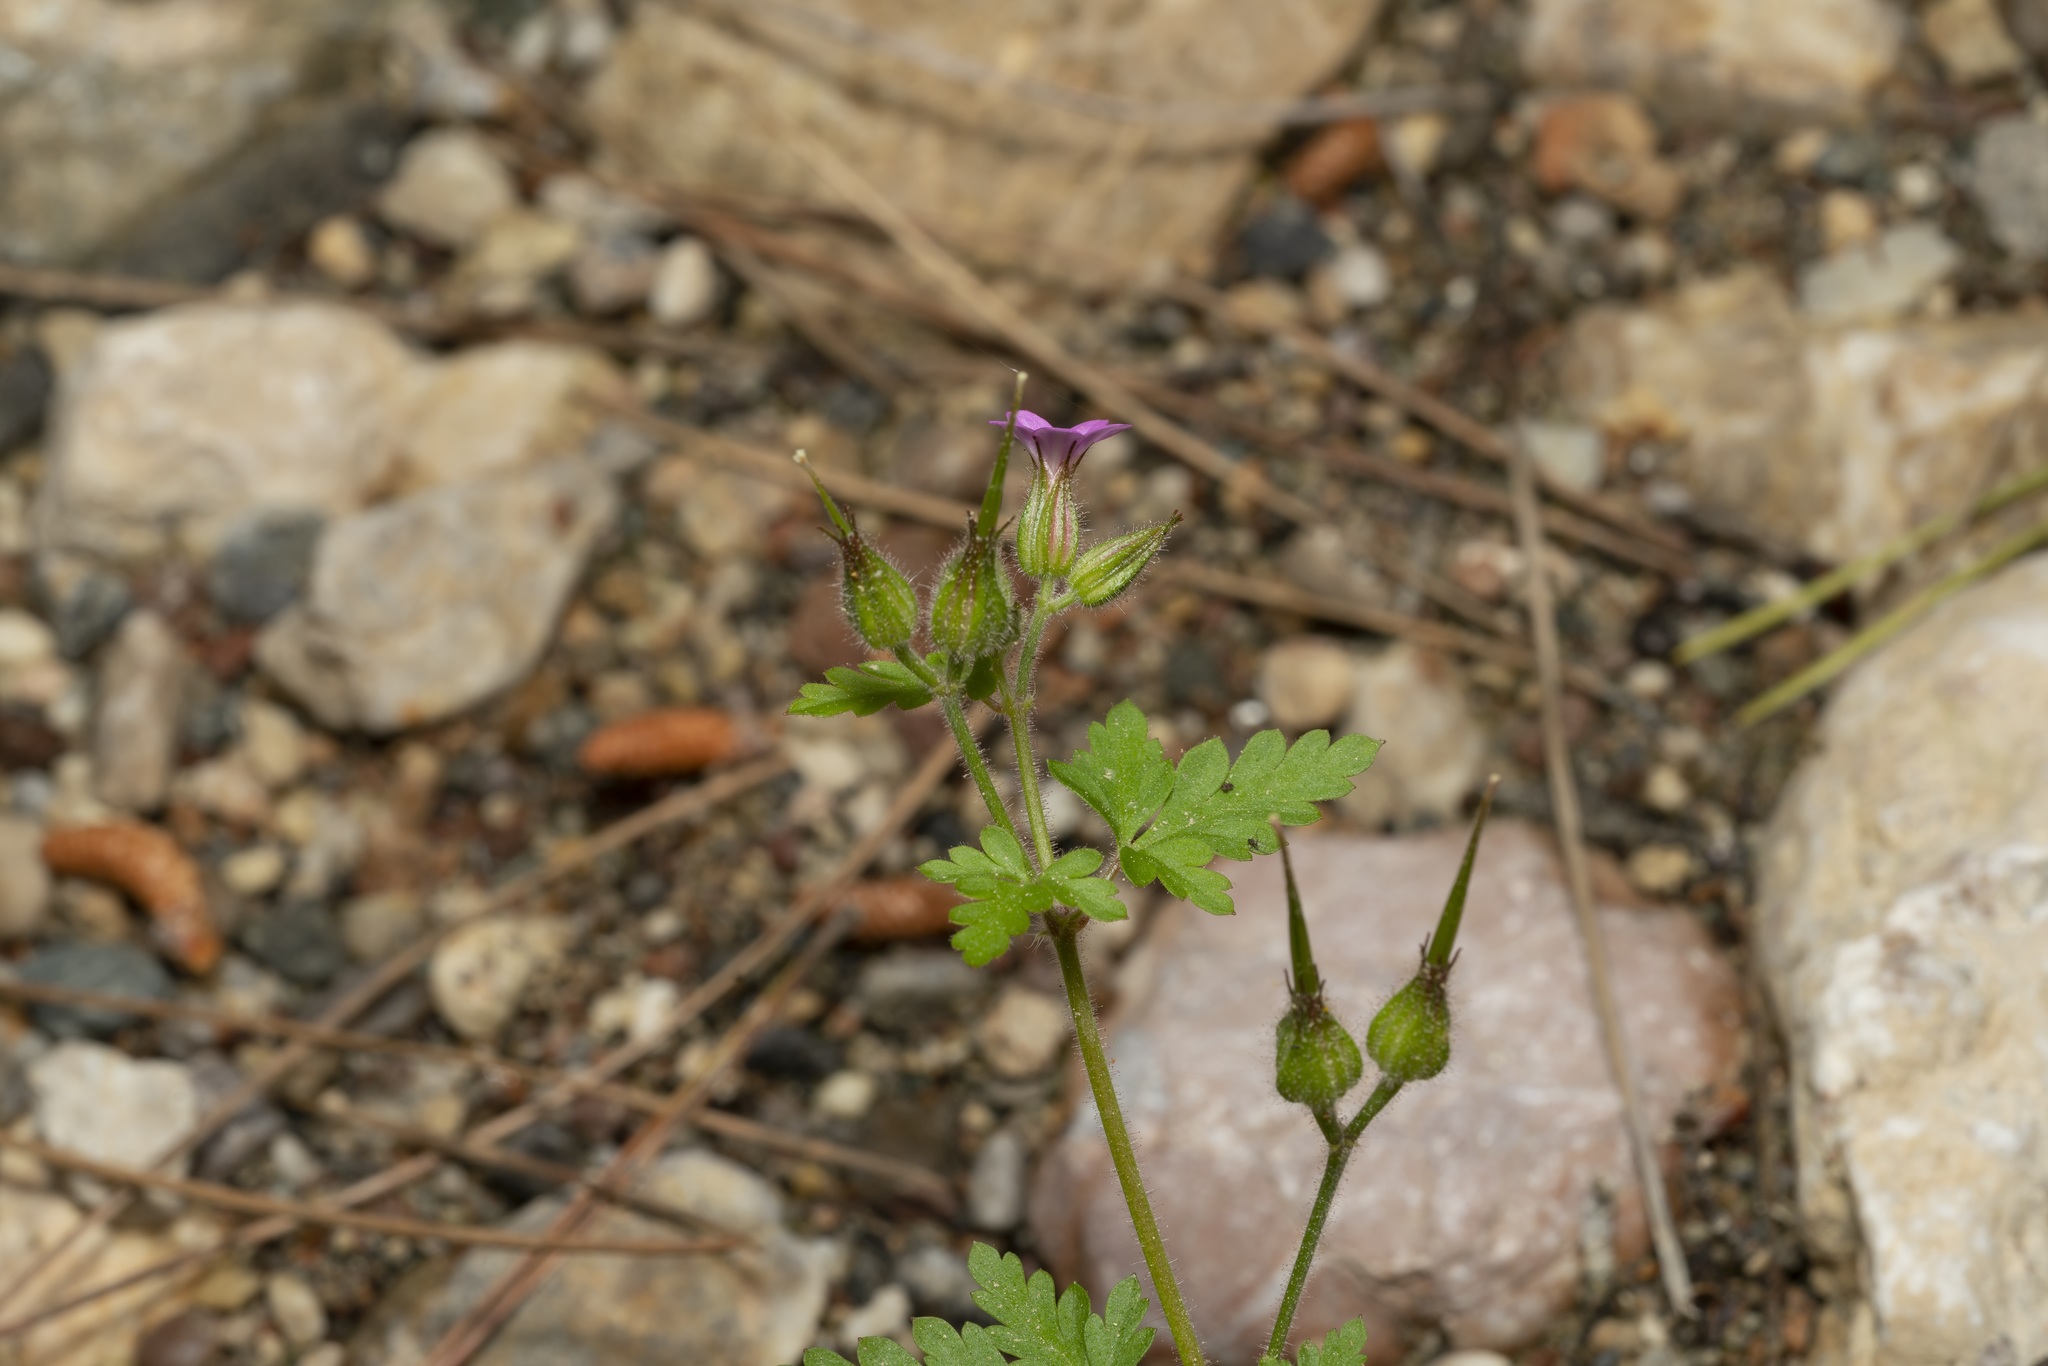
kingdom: Plantae
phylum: Tracheophyta
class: Magnoliopsida
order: Geraniales
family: Geraniaceae
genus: Geranium
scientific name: Geranium purpureum
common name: Little-robin
